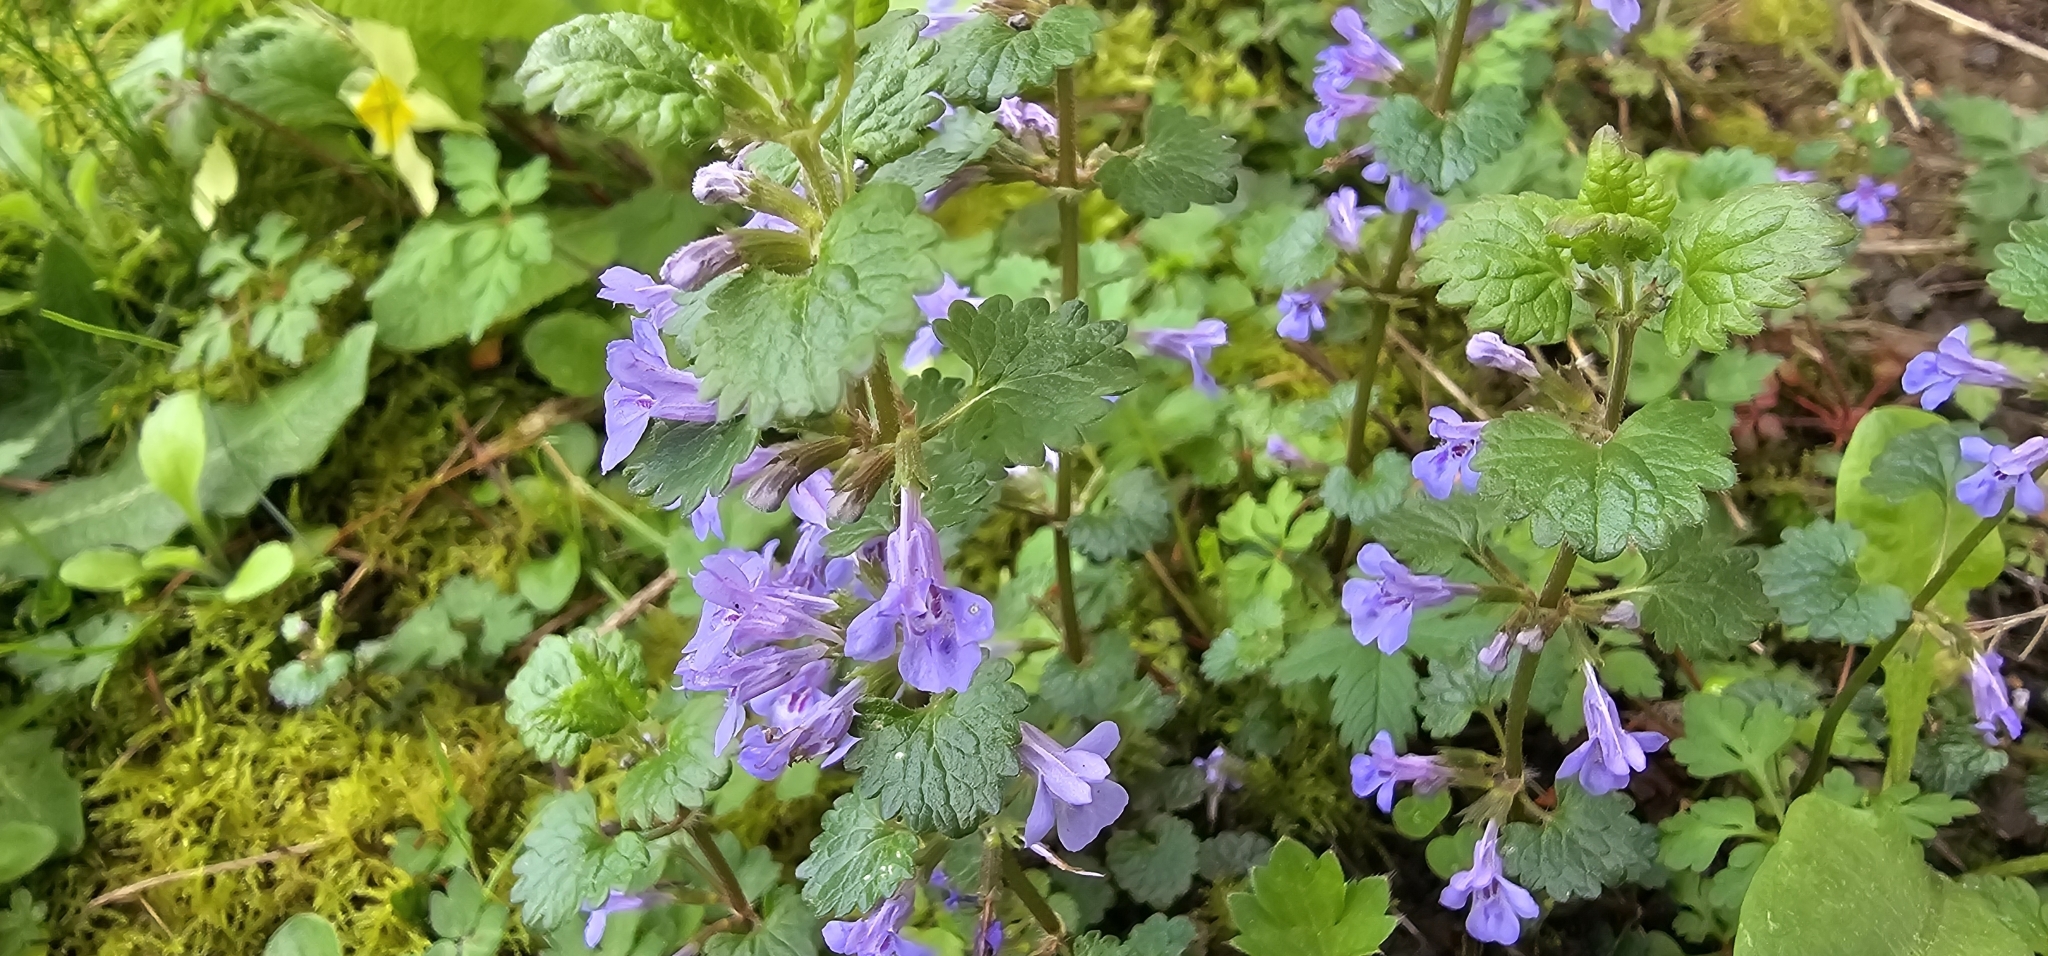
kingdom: Plantae
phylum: Tracheophyta
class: Magnoliopsida
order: Lamiales
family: Lamiaceae
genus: Glechoma
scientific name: Glechoma hederacea
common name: Ground ivy
